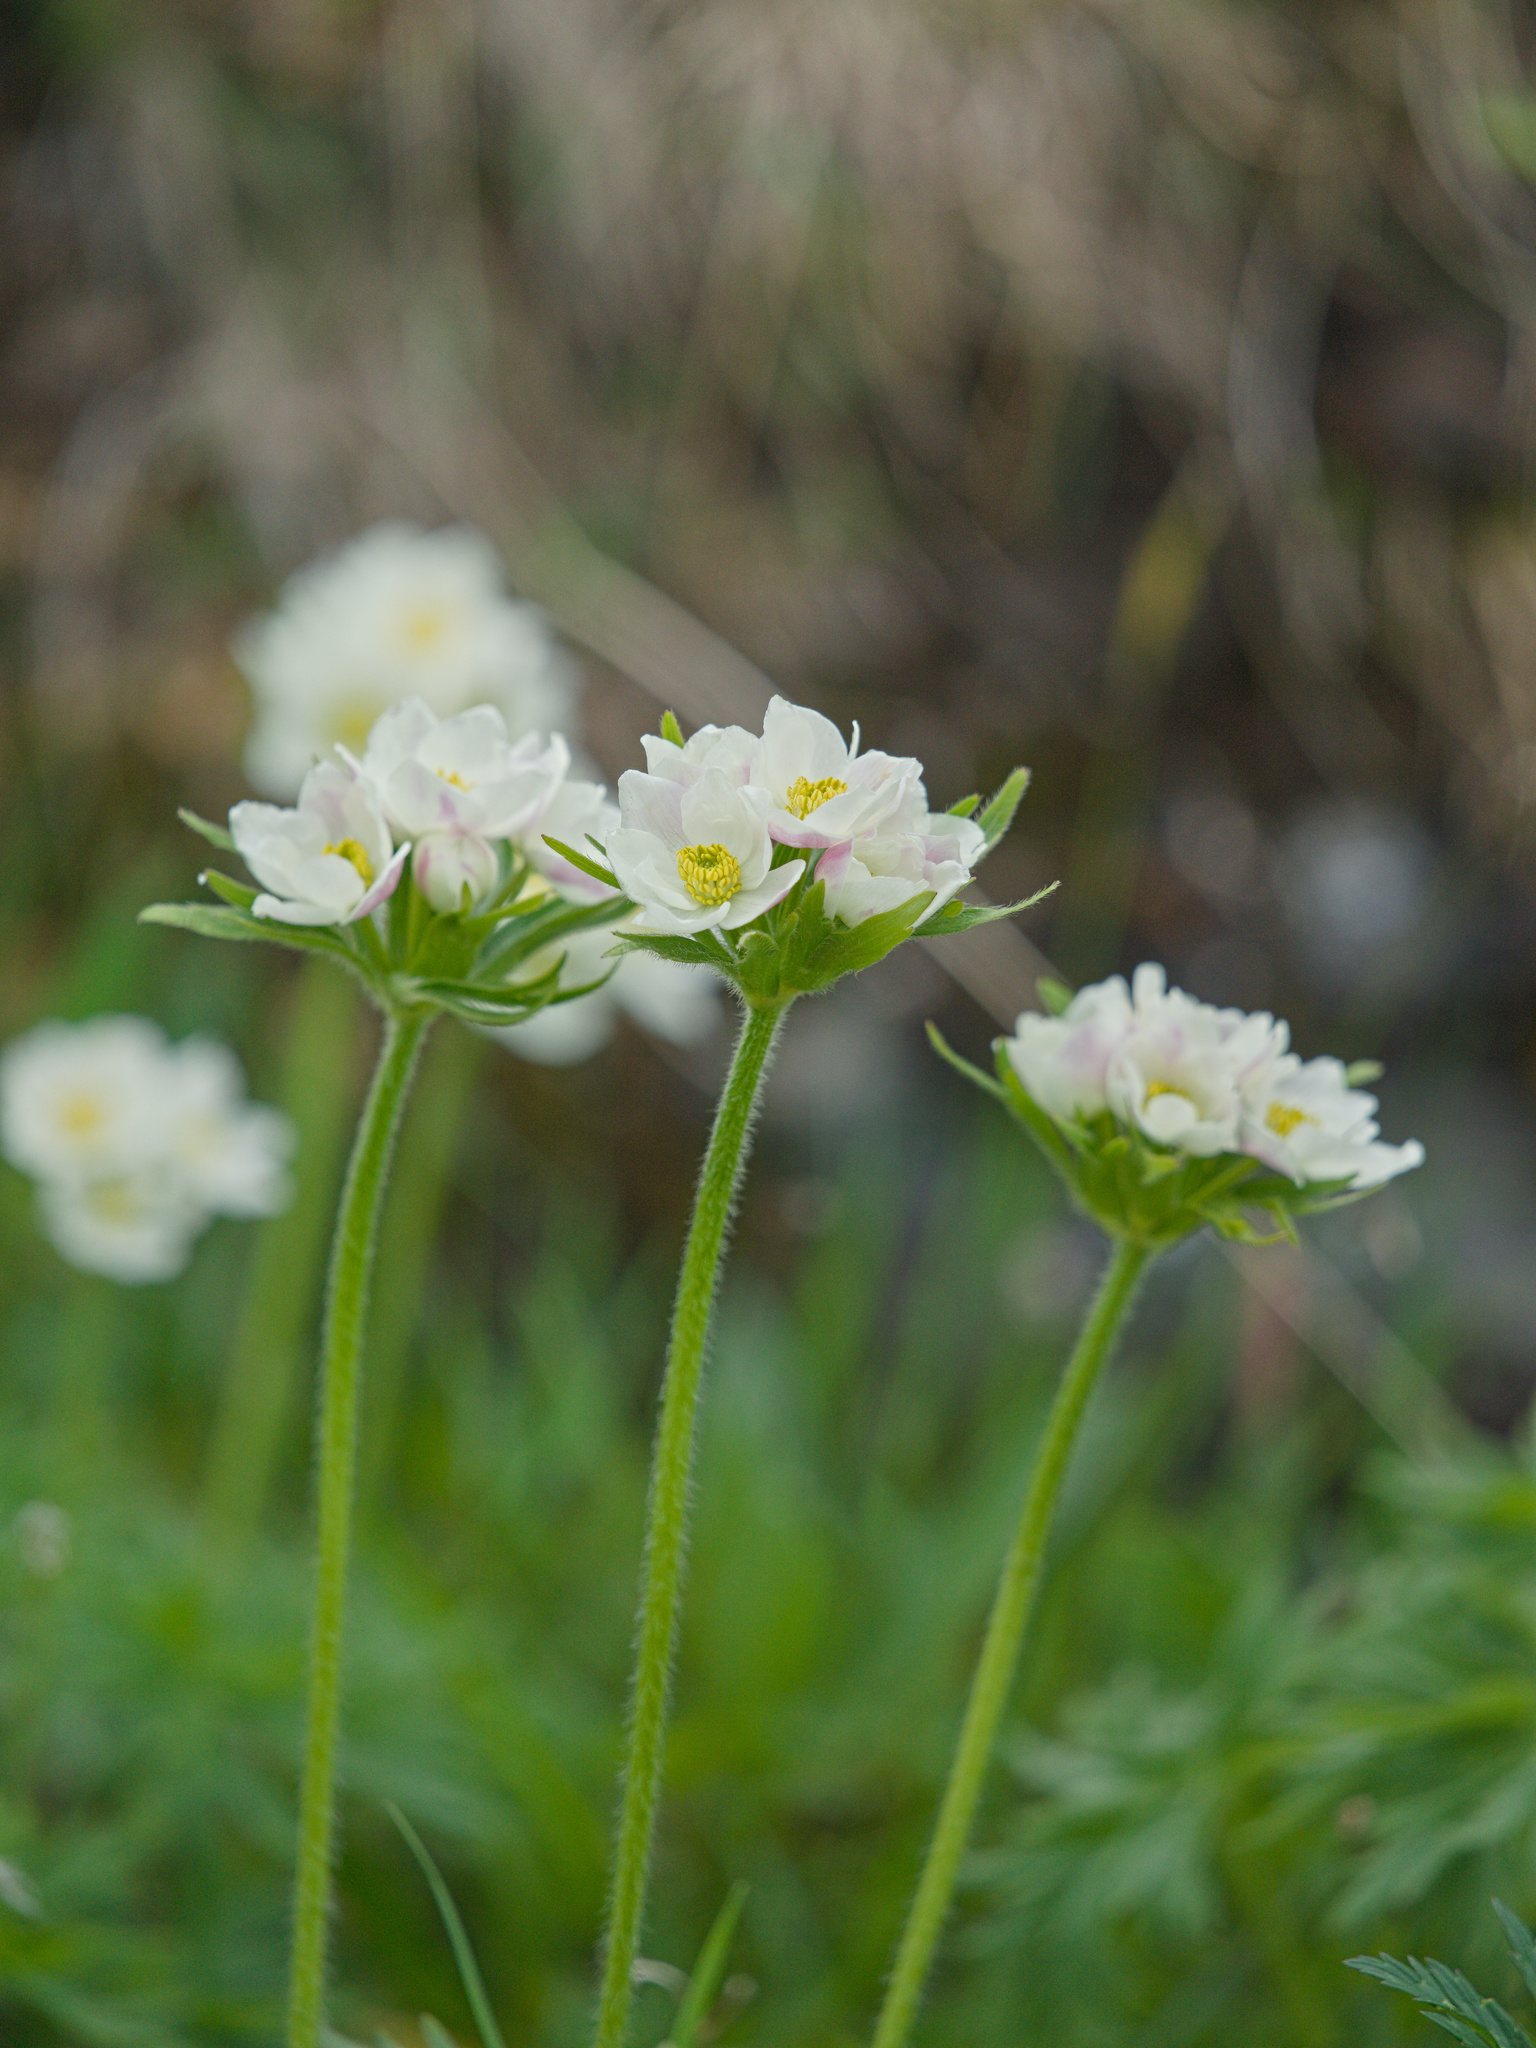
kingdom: Plantae
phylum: Tracheophyta
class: Magnoliopsida
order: Ranunculales
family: Ranunculaceae
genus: Anemonastrum
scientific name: Anemonastrum narcissiflorum
